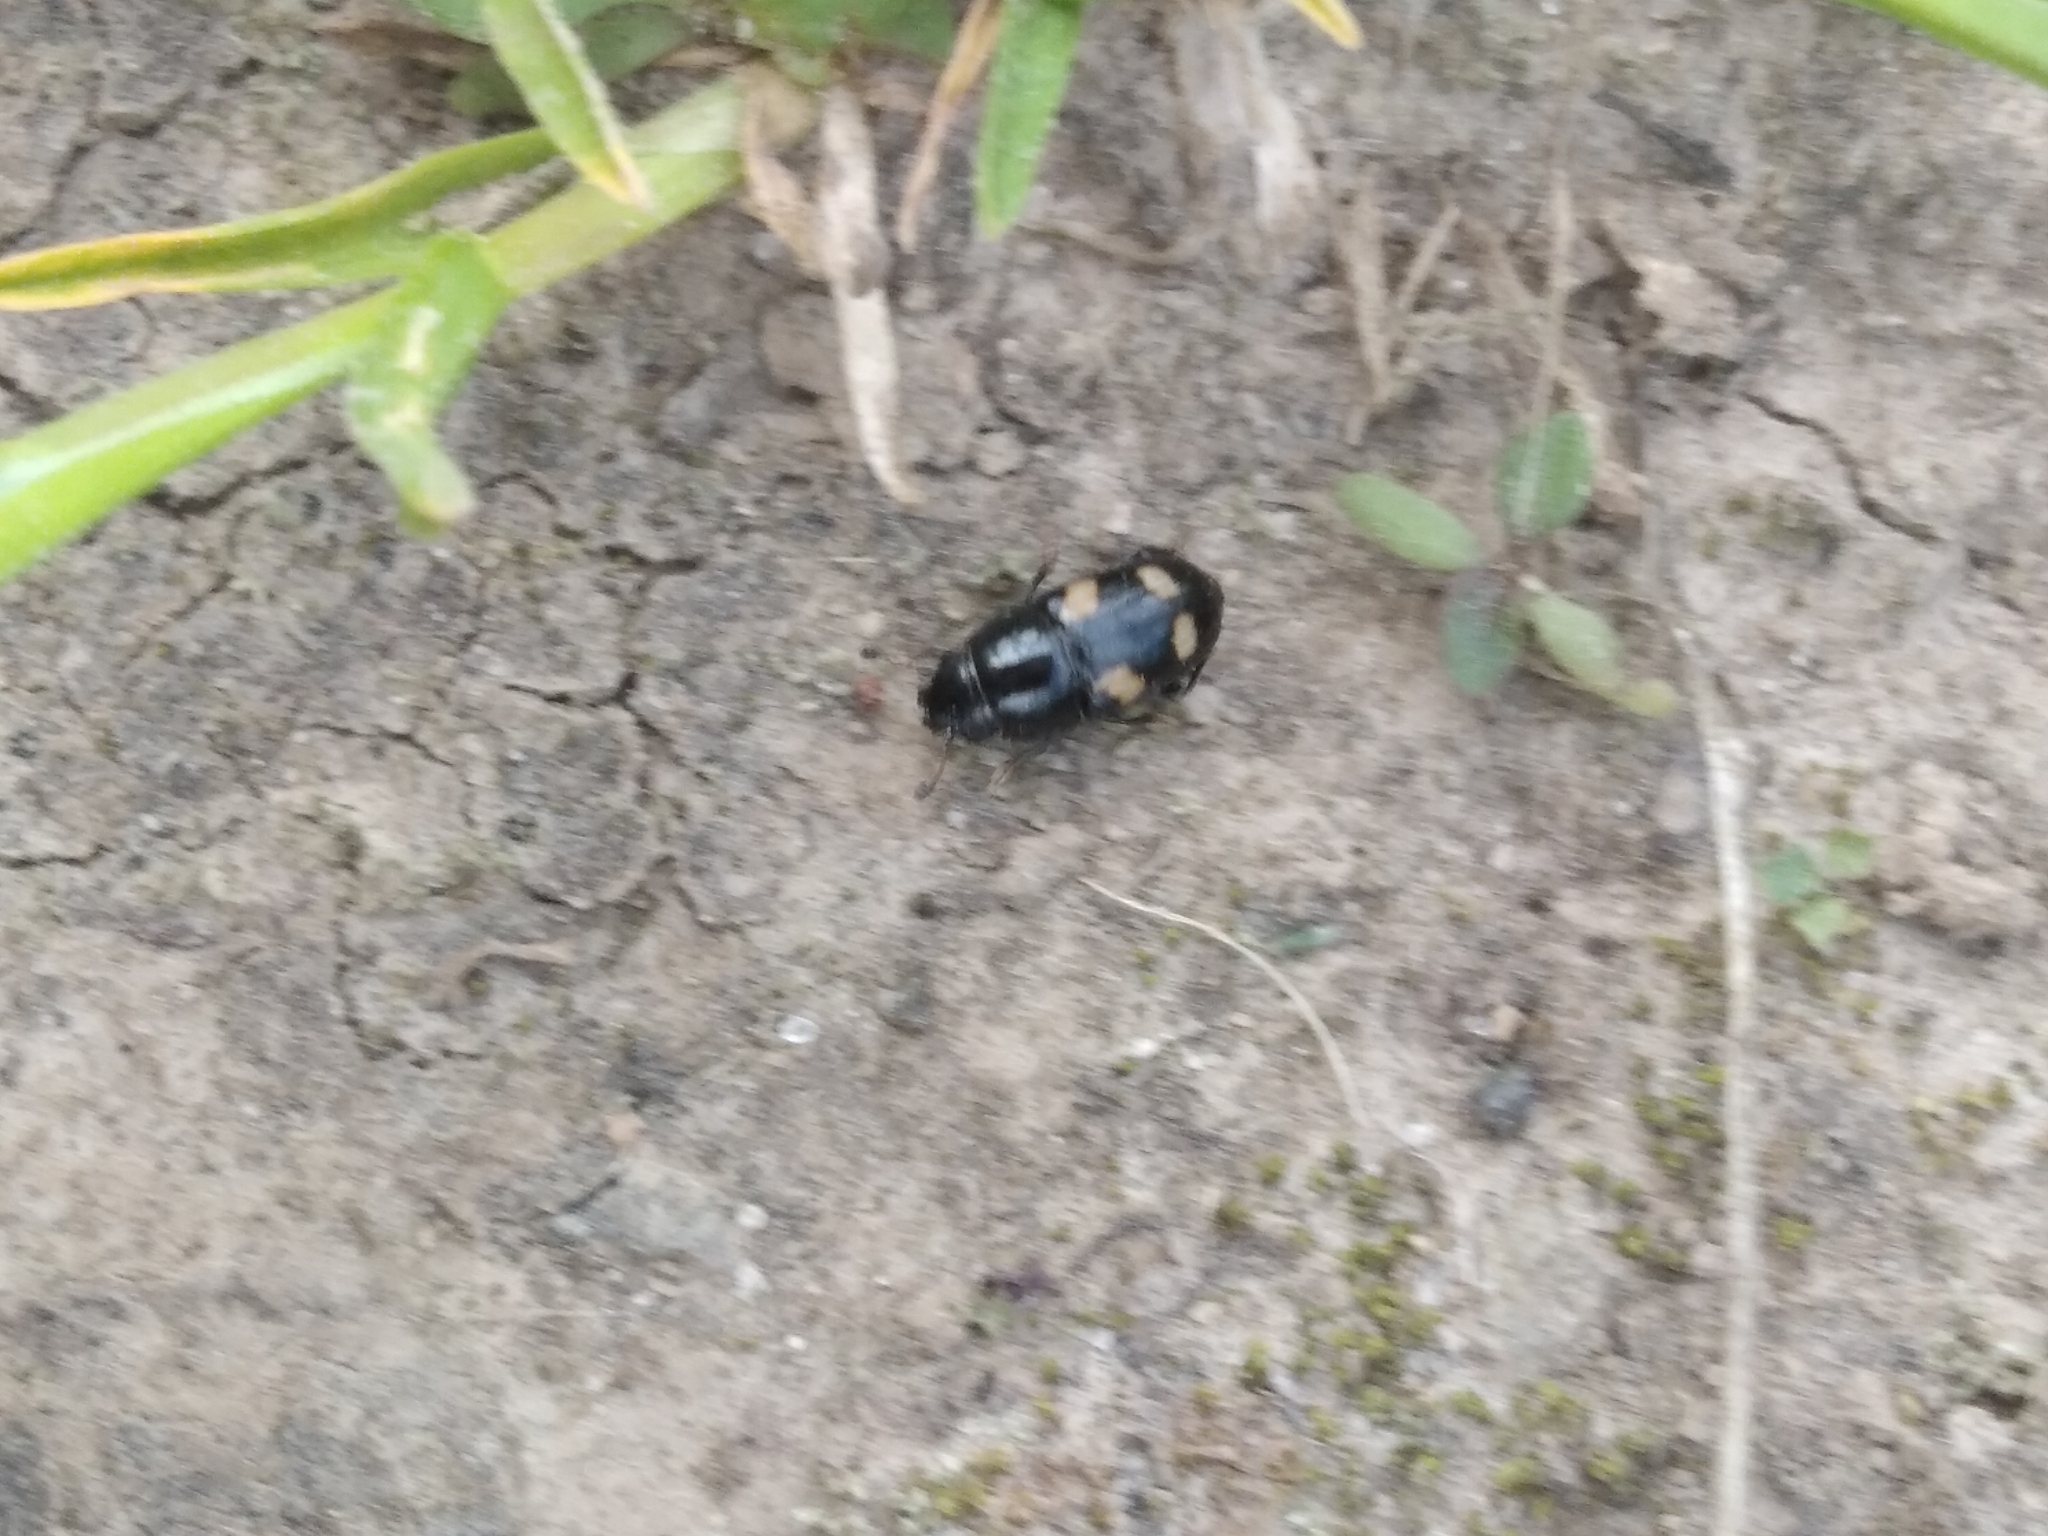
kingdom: Animalia
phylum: Arthropoda
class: Insecta
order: Coleoptera
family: Nitidulidae
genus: Glischrochilus
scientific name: Glischrochilus quadrisignatus
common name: Picnic beetle
